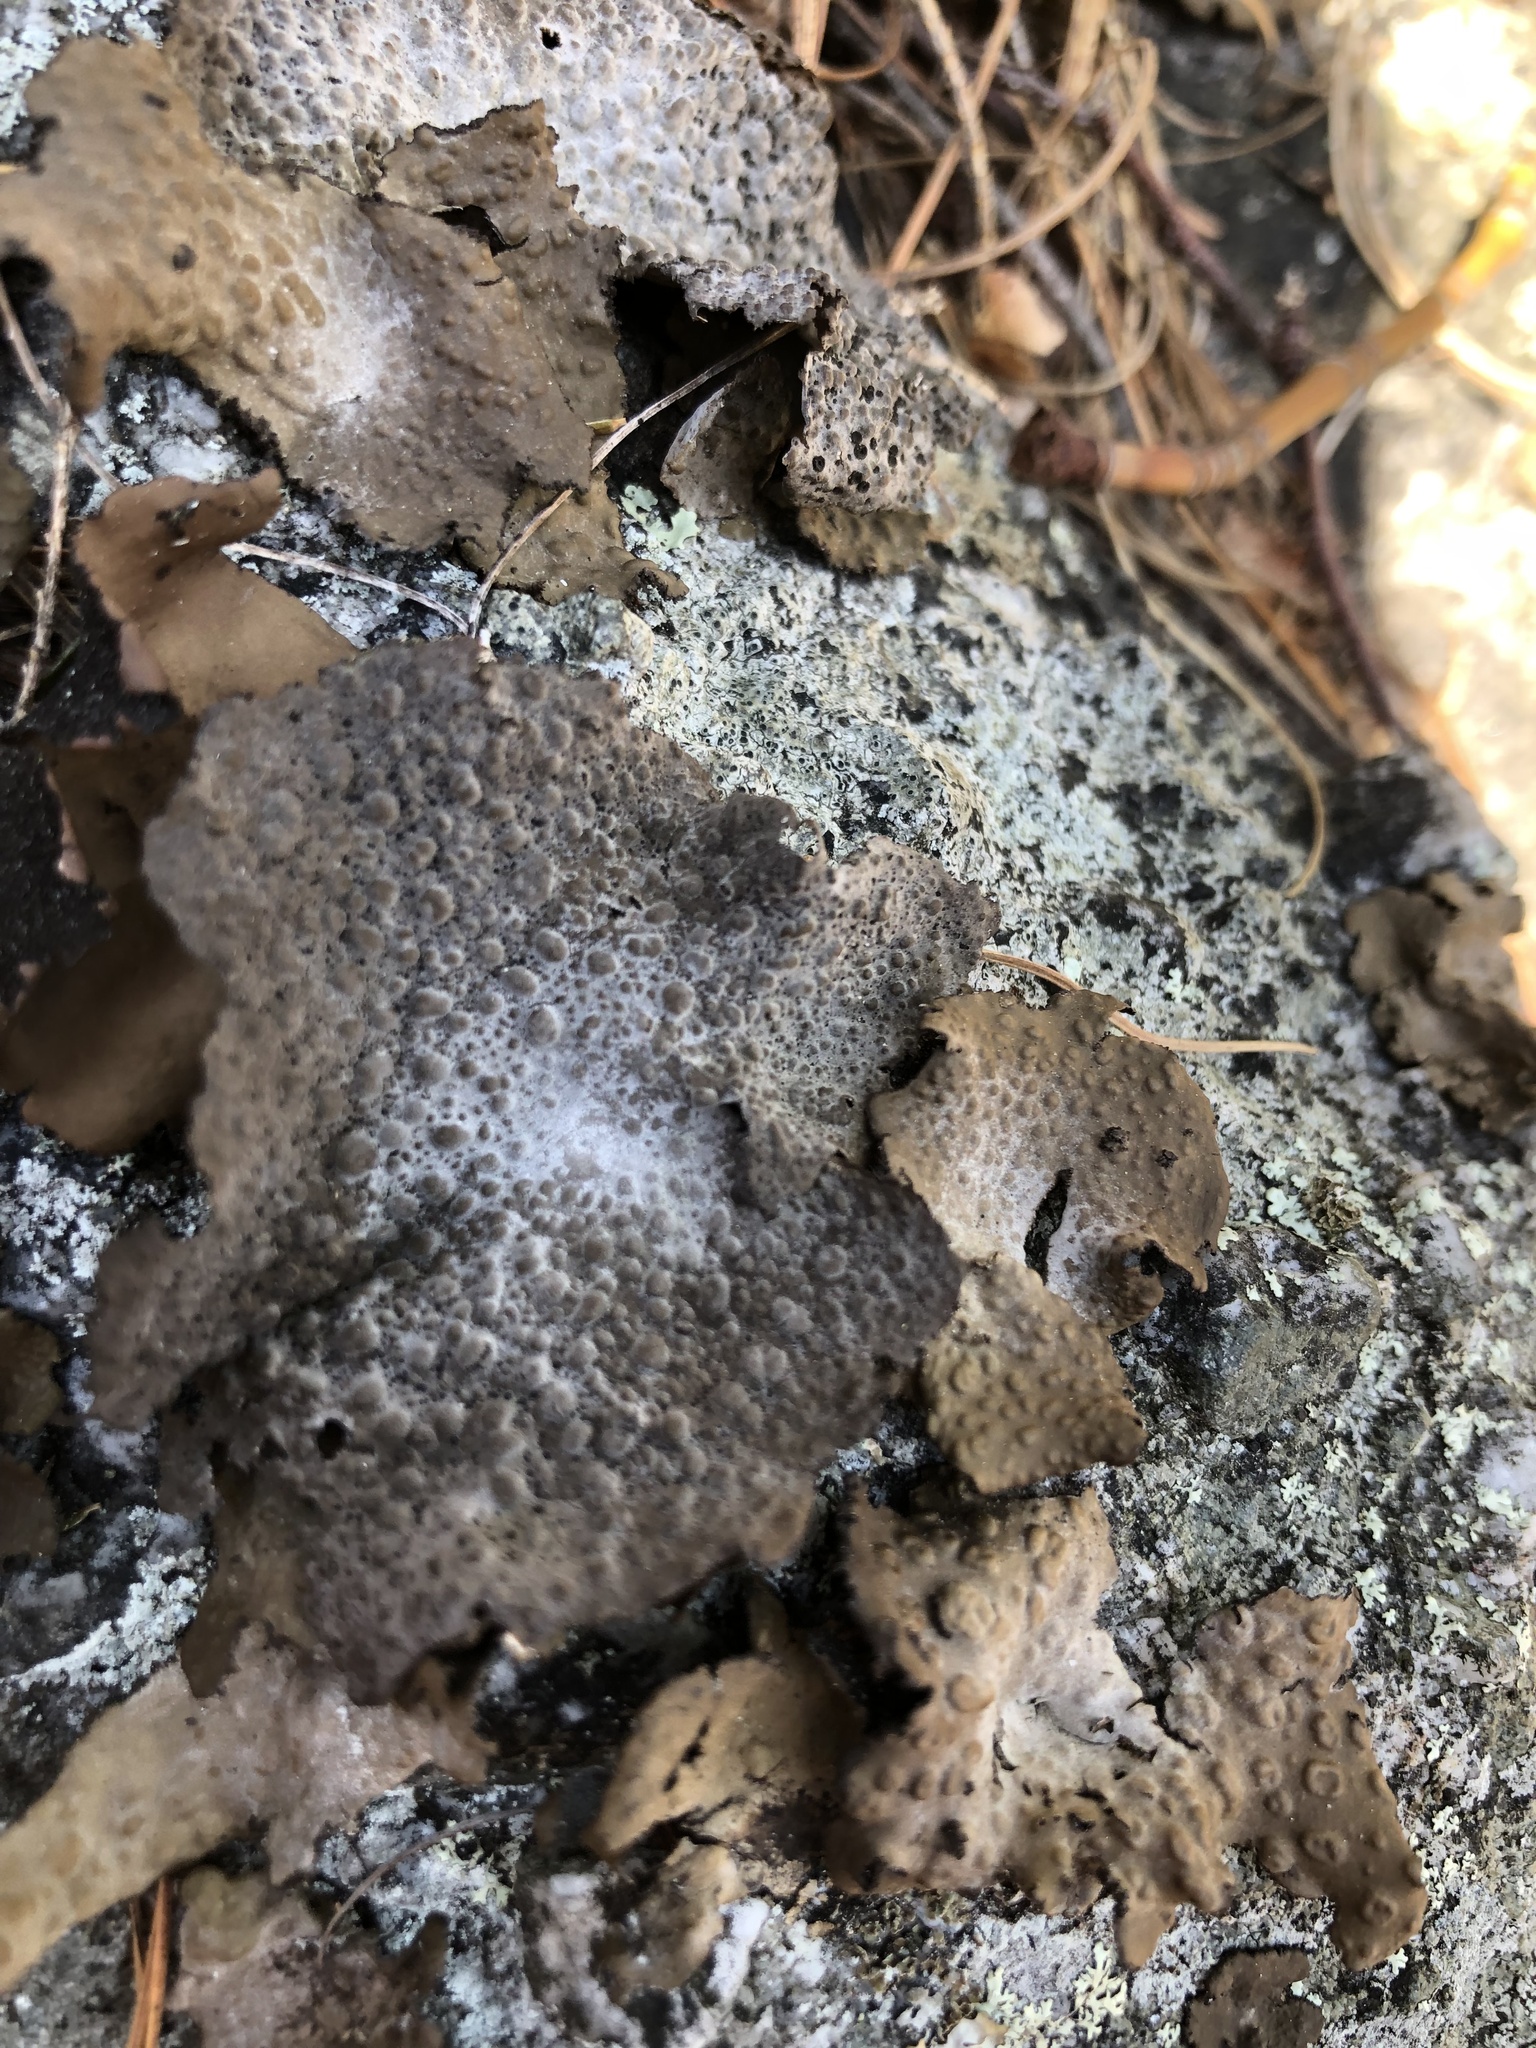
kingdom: Fungi
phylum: Ascomycota
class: Lecanoromycetes
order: Umbilicariales
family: Umbilicariaceae
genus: Lasallia
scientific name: Lasallia papulosa
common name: Common toadskin lichen
